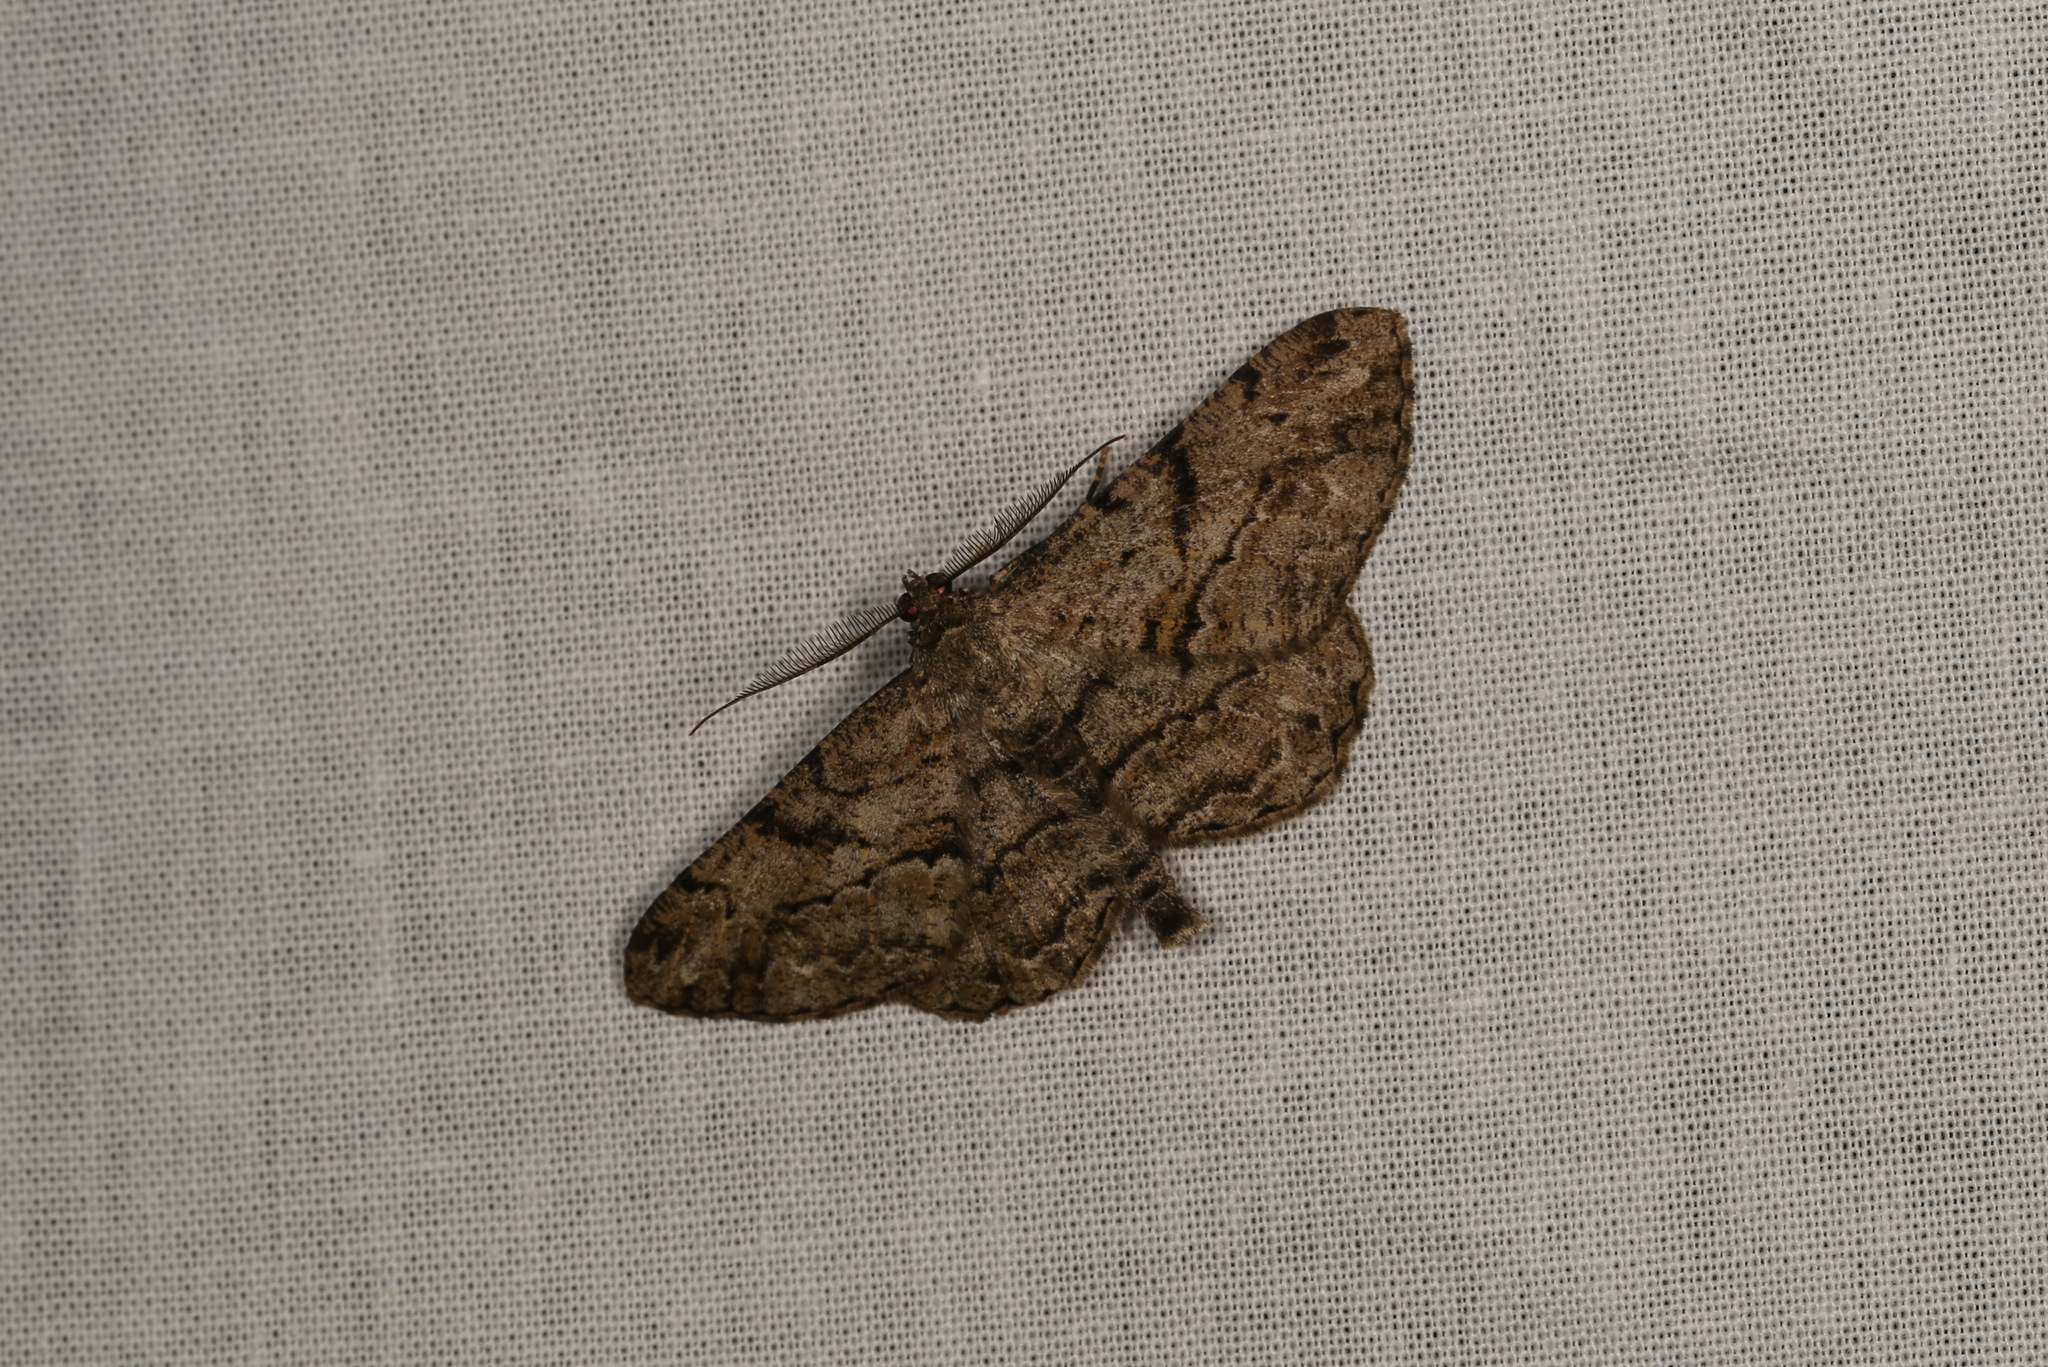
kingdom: Animalia
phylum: Arthropoda
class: Insecta
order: Lepidoptera
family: Geometridae
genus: Peribatodes
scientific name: Peribatodes rhomboidaria
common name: Willow beauty
